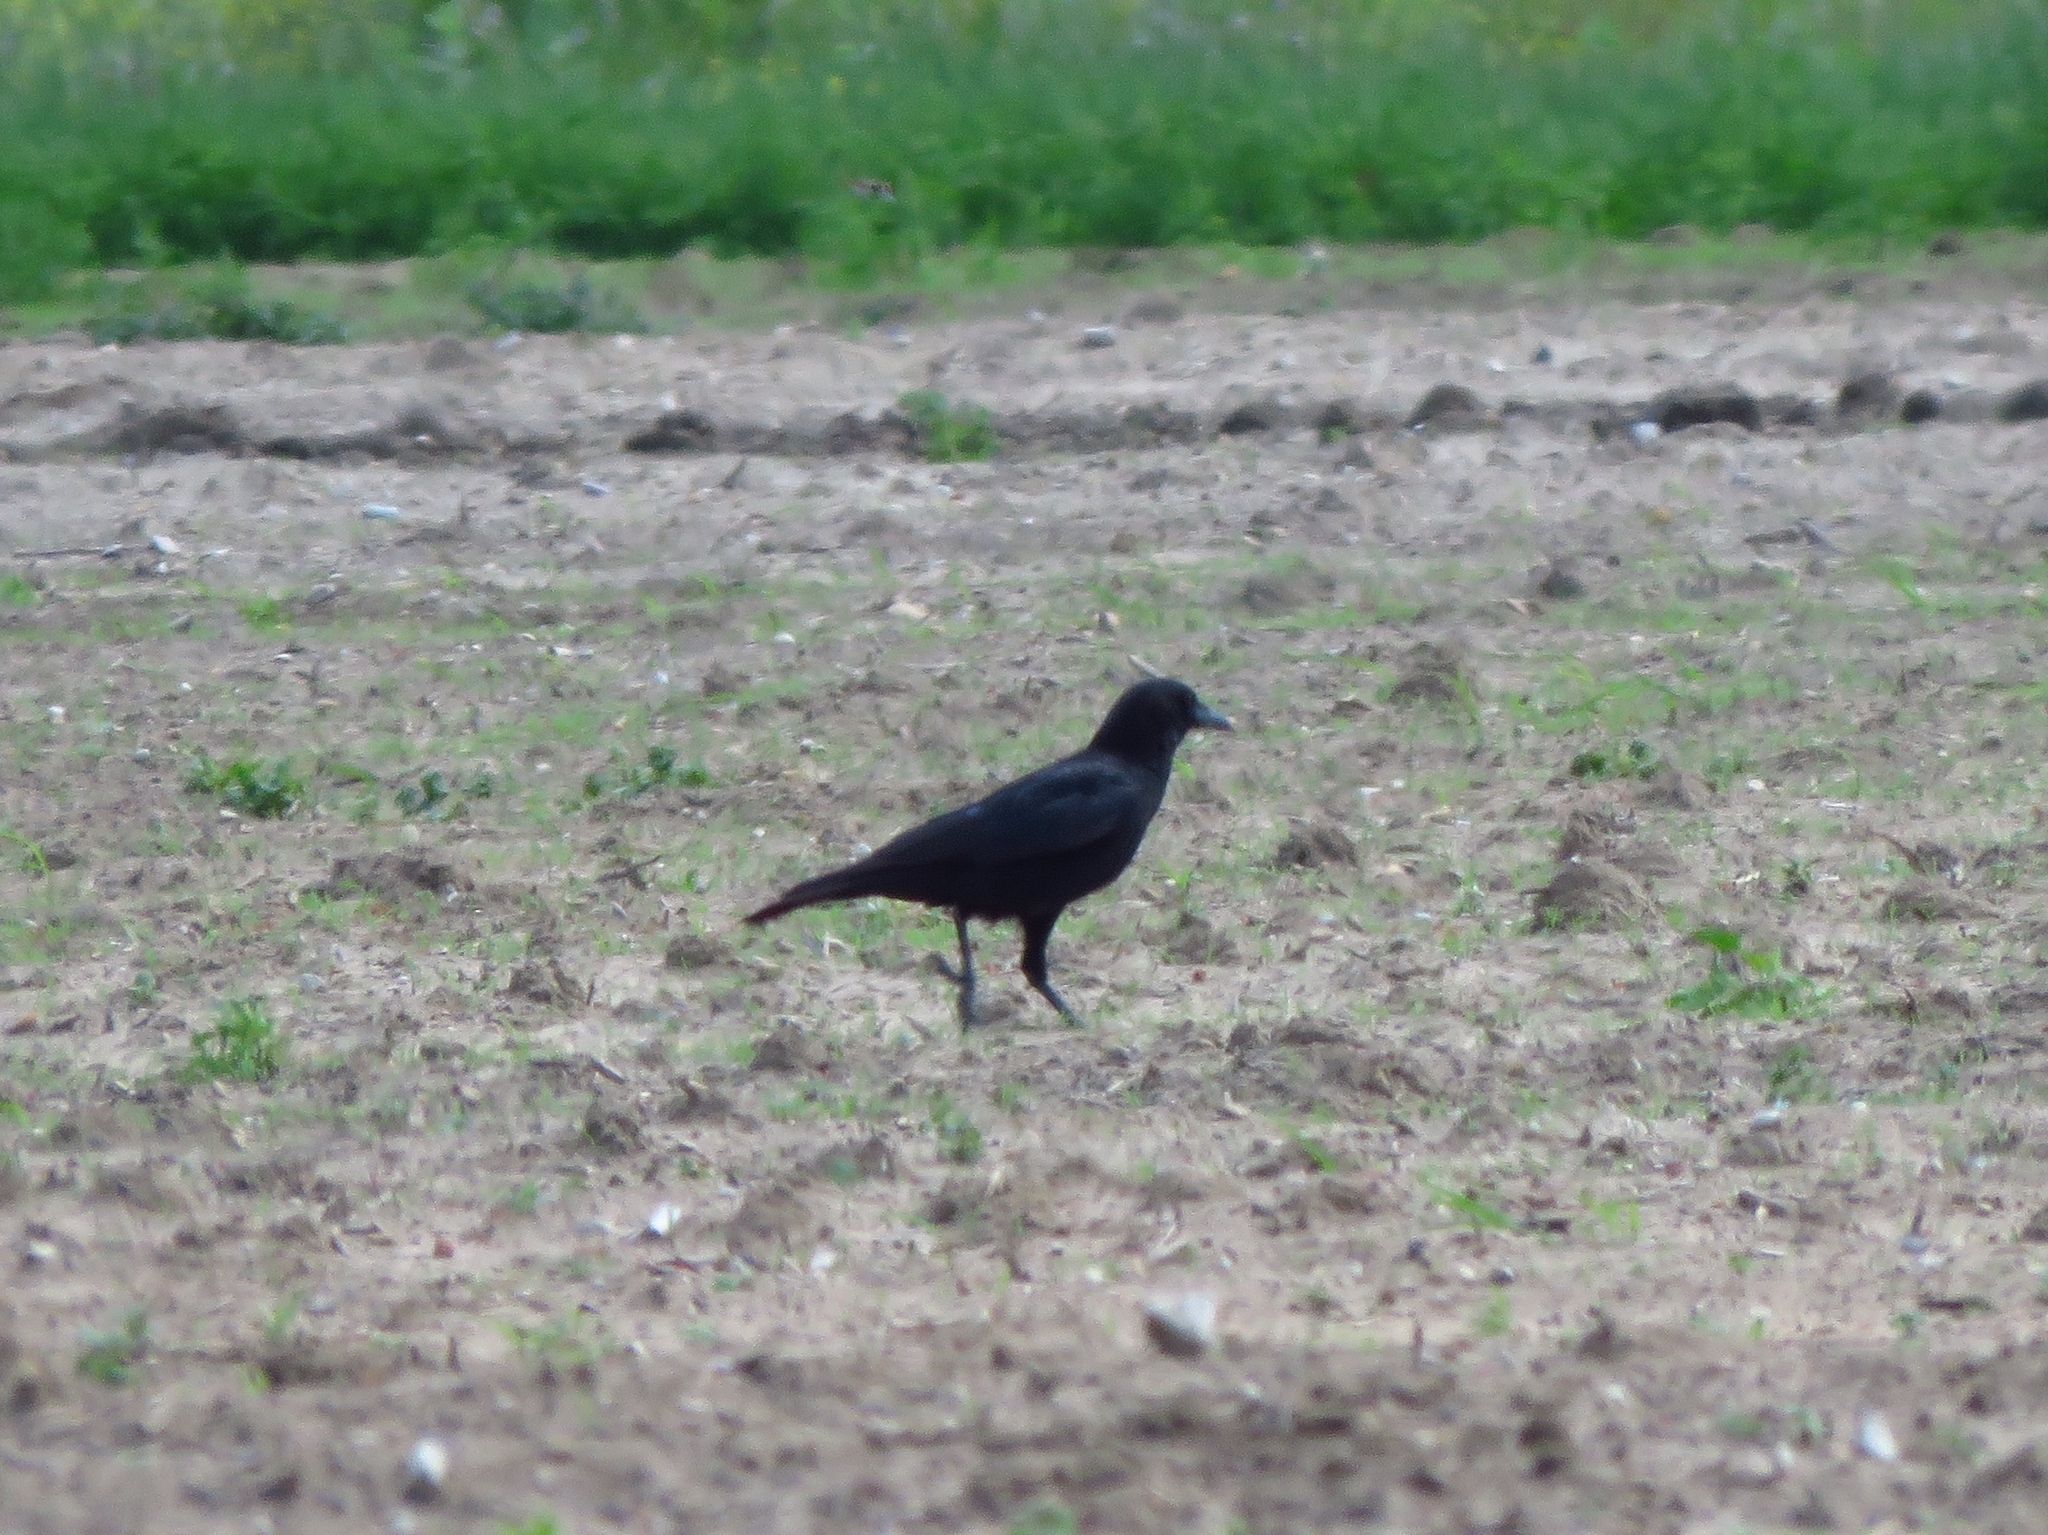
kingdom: Animalia
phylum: Chordata
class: Aves
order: Passeriformes
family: Corvidae
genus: Corvus
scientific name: Corvus brachyrhynchos
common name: American crow
